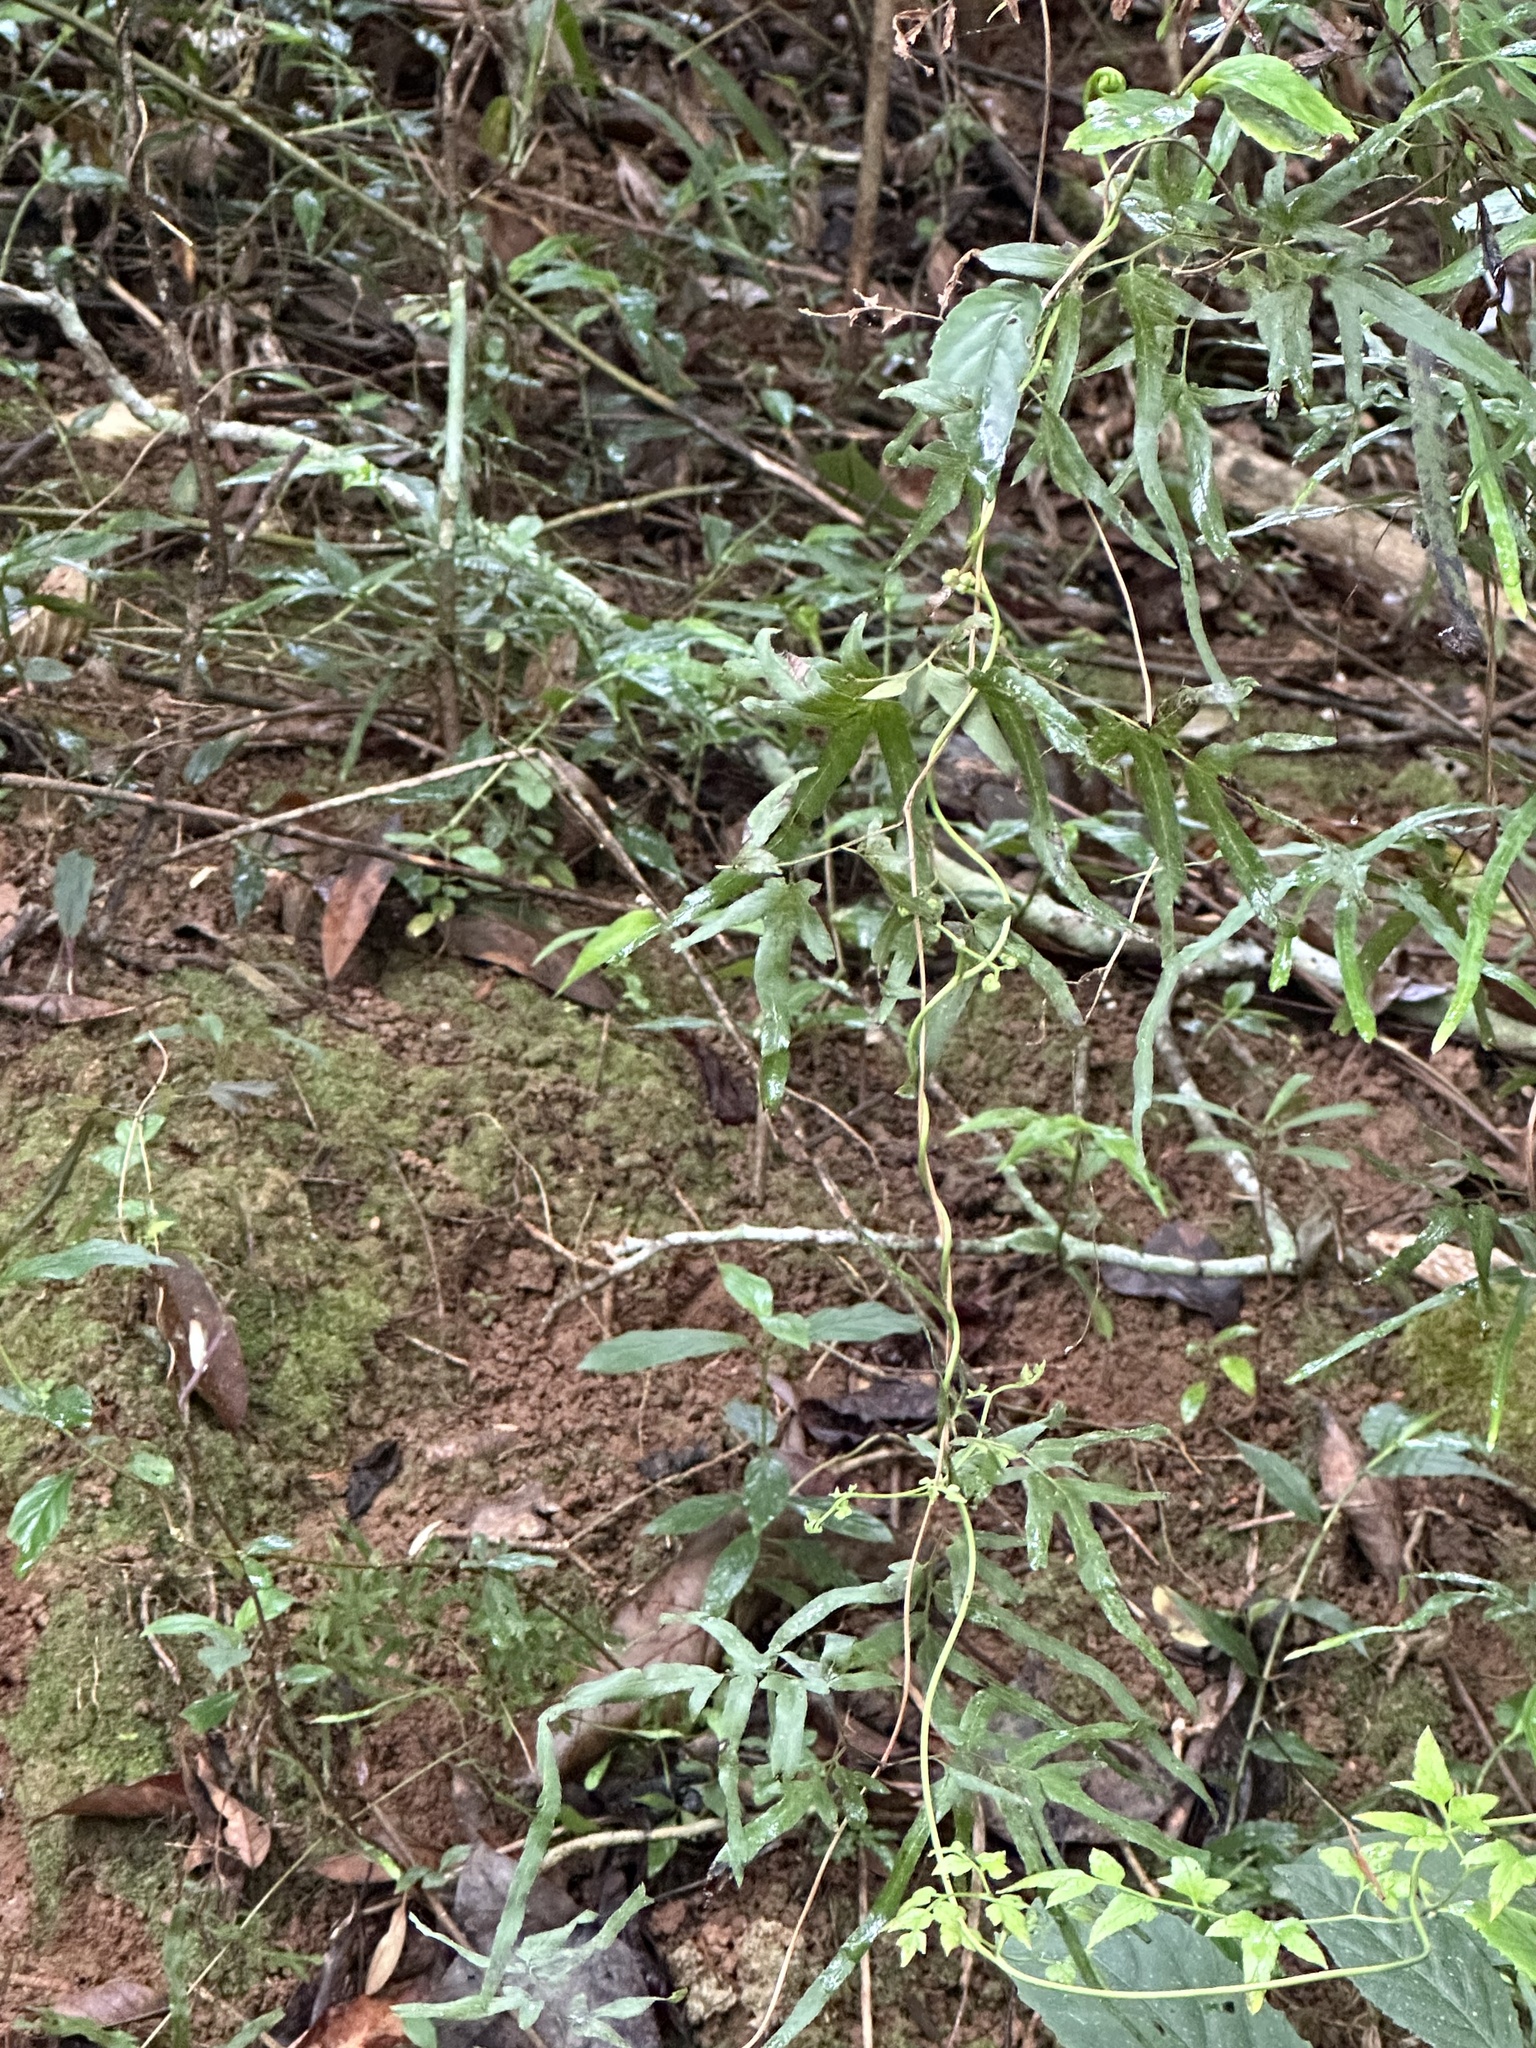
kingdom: Plantae
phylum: Tracheophyta
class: Polypodiopsida
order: Schizaeales
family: Lygodiaceae
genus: Lygodium
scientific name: Lygodium japonicum
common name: Japanese climbing fern
